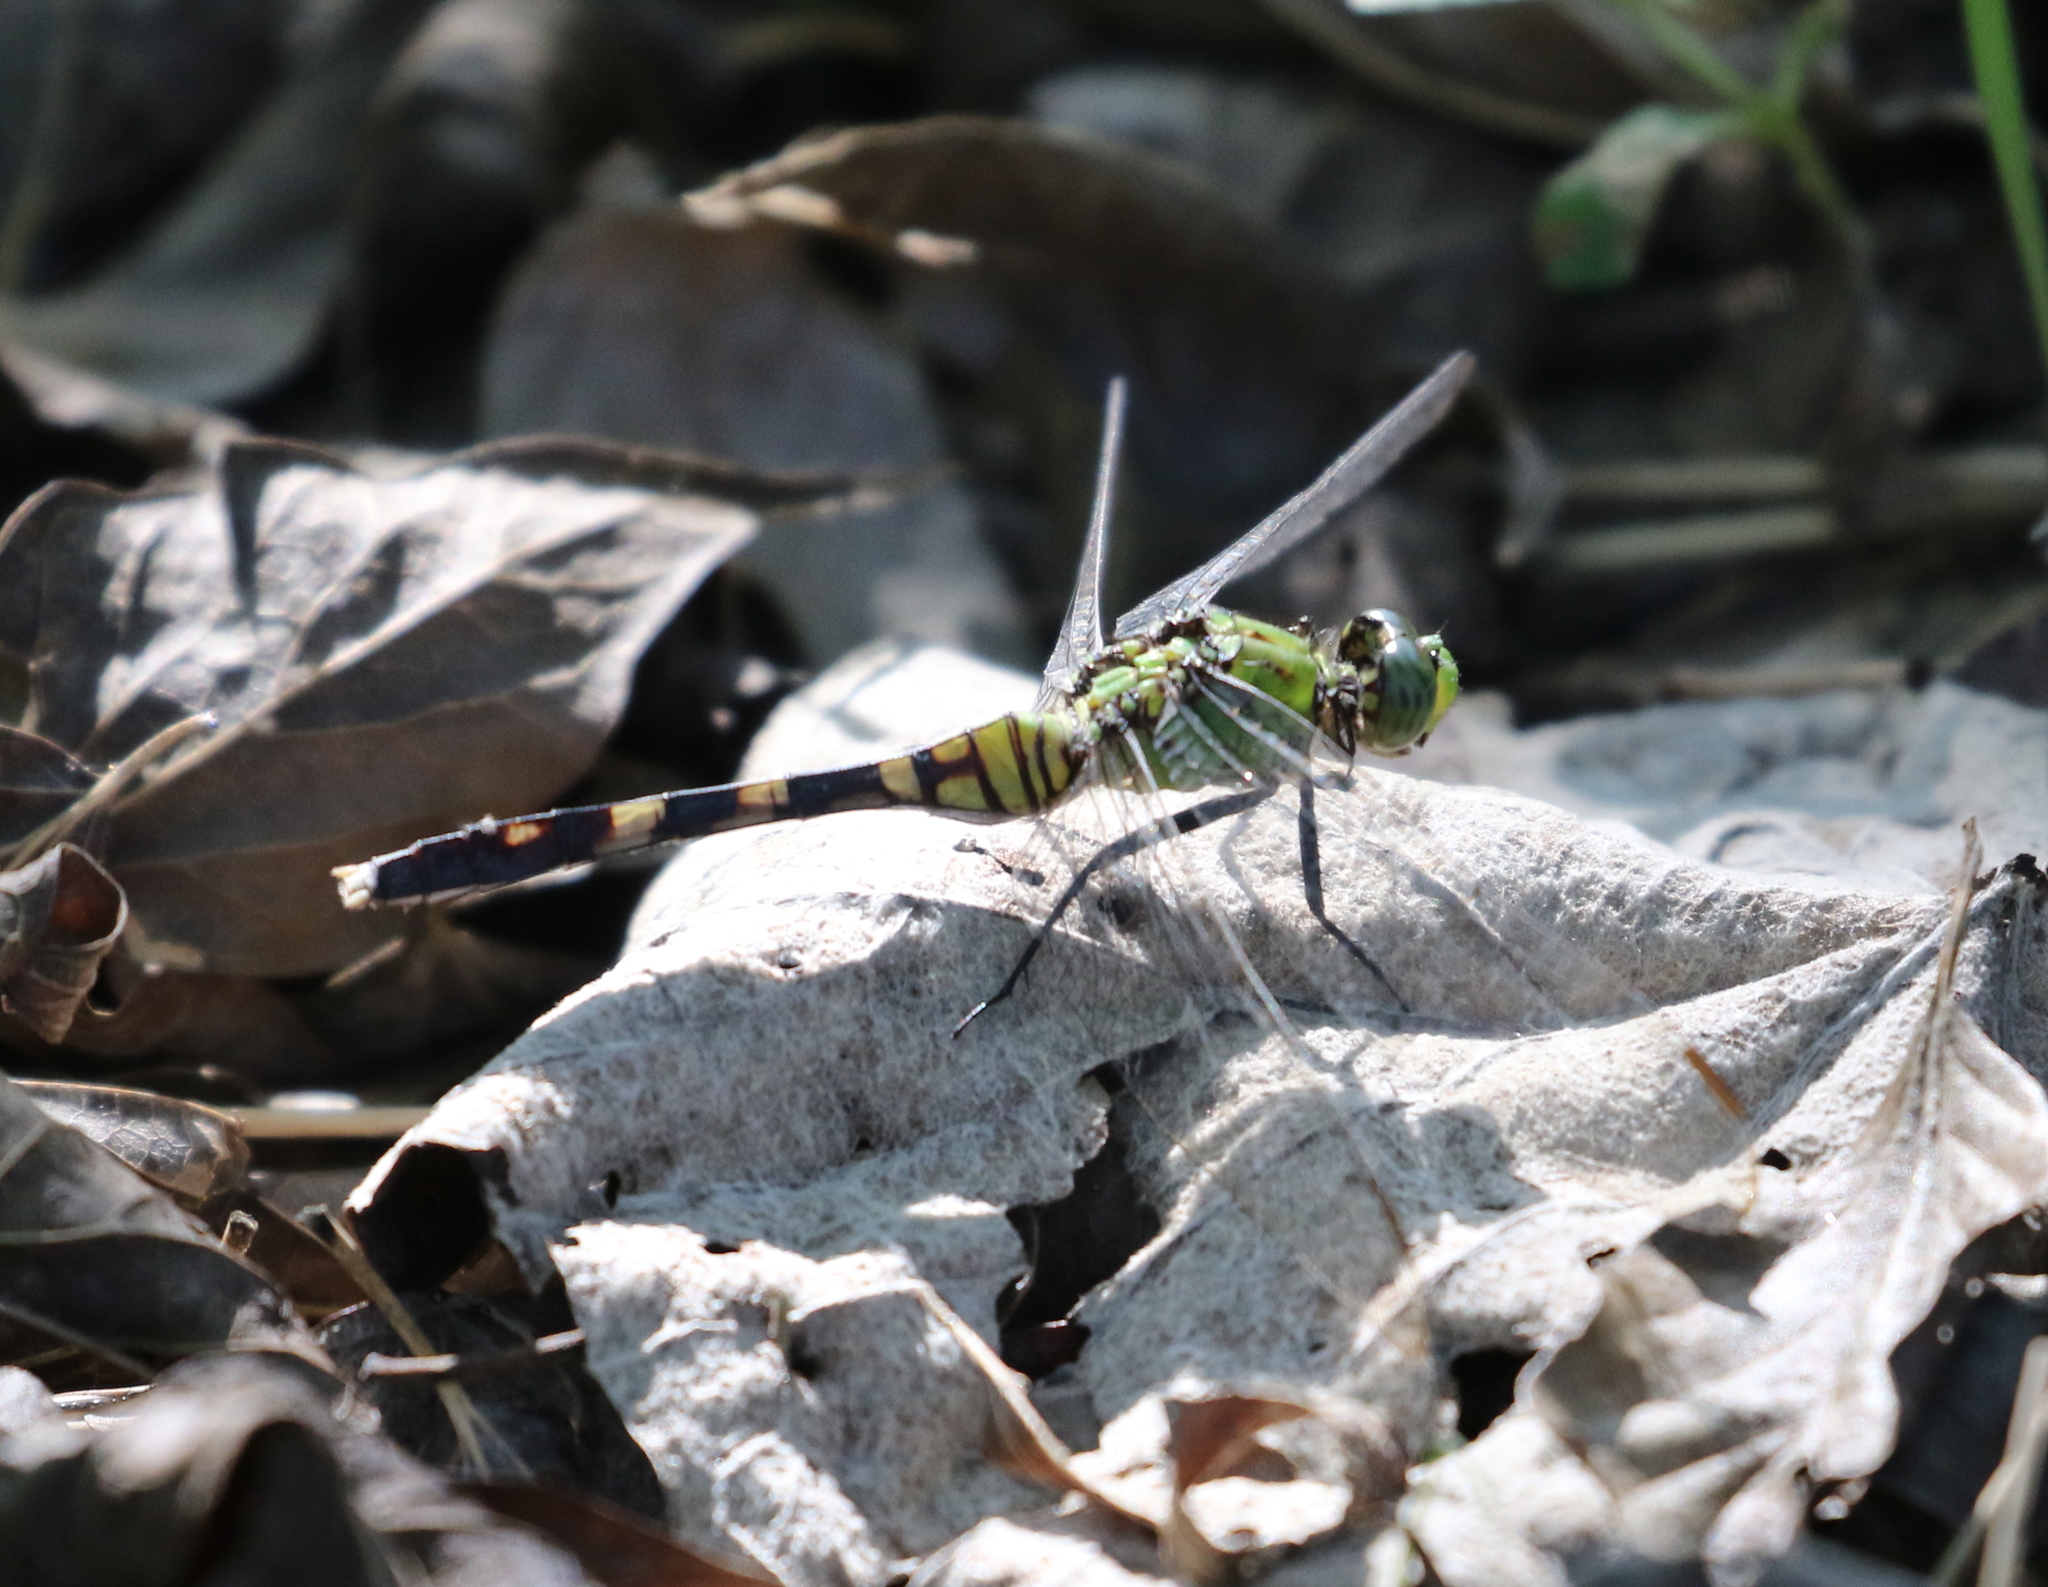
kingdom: Animalia
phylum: Arthropoda
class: Insecta
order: Odonata
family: Libellulidae
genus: Erythemis
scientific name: Erythemis simplicicollis
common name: Eastern pondhawk
